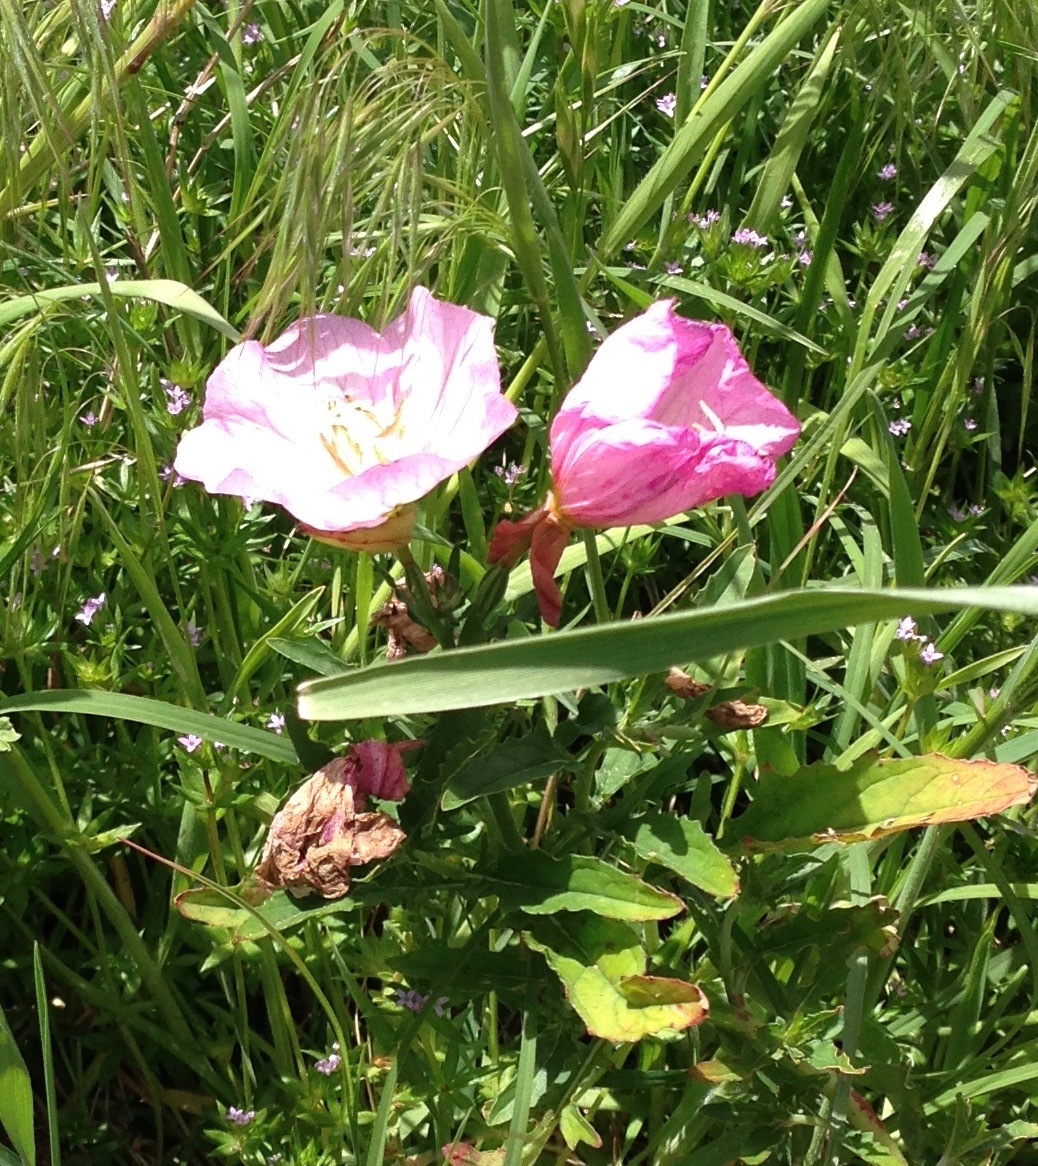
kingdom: Plantae
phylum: Tracheophyta
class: Magnoliopsida
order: Myrtales
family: Onagraceae
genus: Oenothera
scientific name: Oenothera speciosa
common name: White evening-primrose
